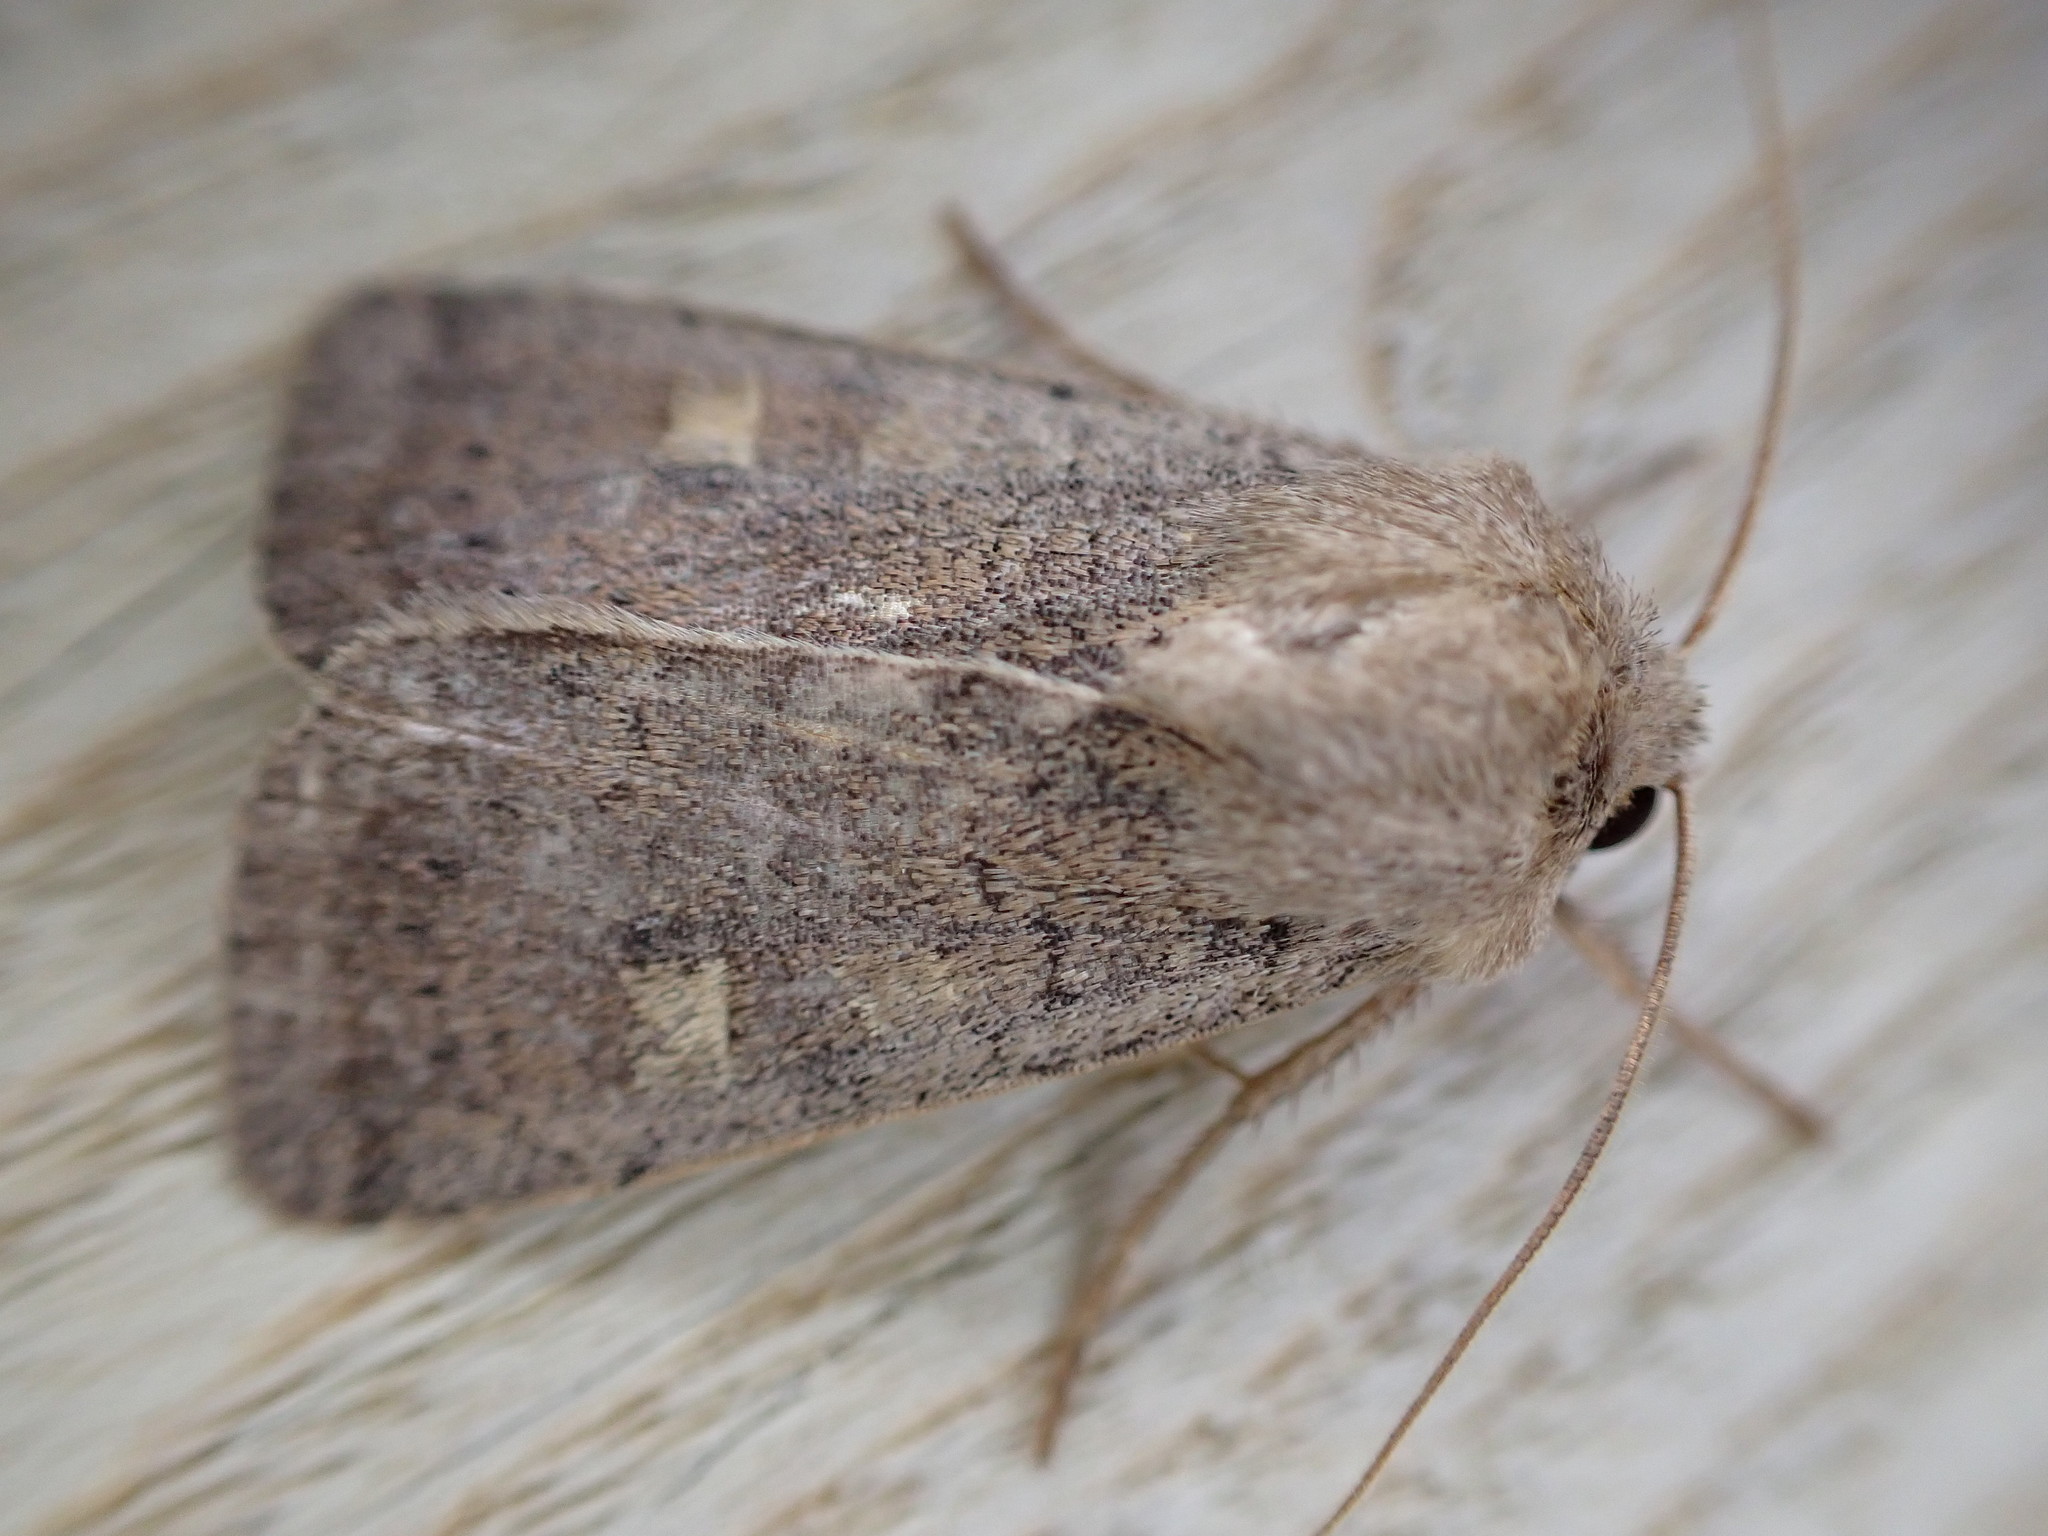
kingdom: Animalia
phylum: Arthropoda
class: Insecta
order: Lepidoptera
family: Noctuidae
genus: Xestia
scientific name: Xestia xanthographa
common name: Square-spot rustic
